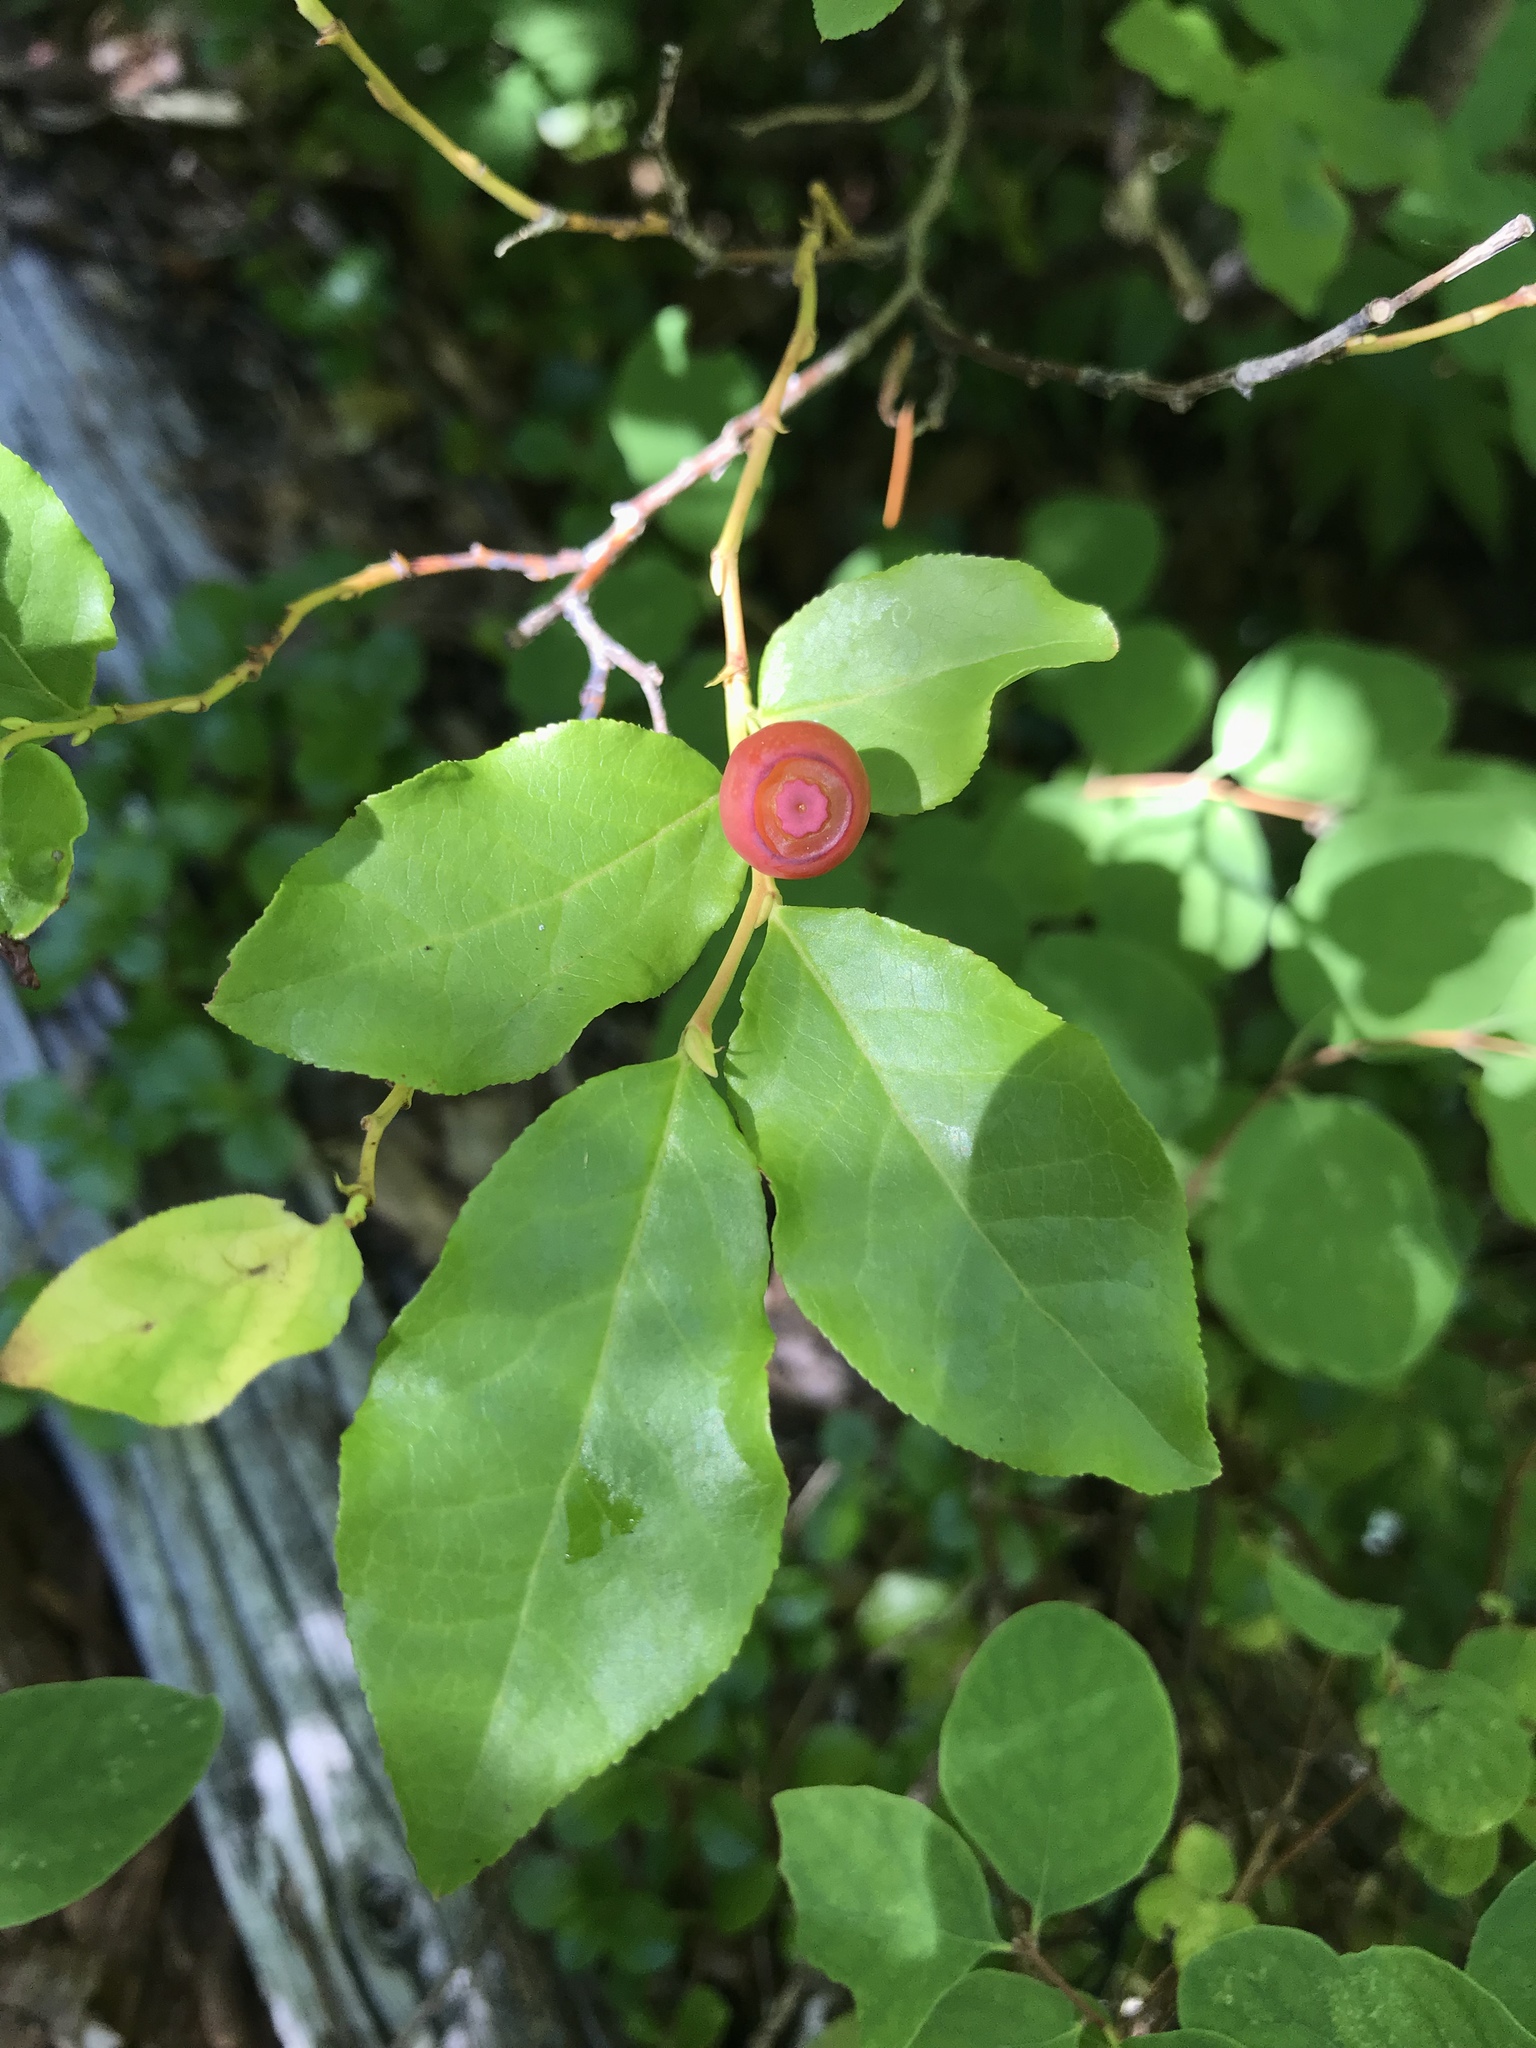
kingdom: Plantae
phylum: Tracheophyta
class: Magnoliopsida
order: Ericales
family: Ericaceae
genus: Vaccinium
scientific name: Vaccinium parvifolium
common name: Red-huckleberry
